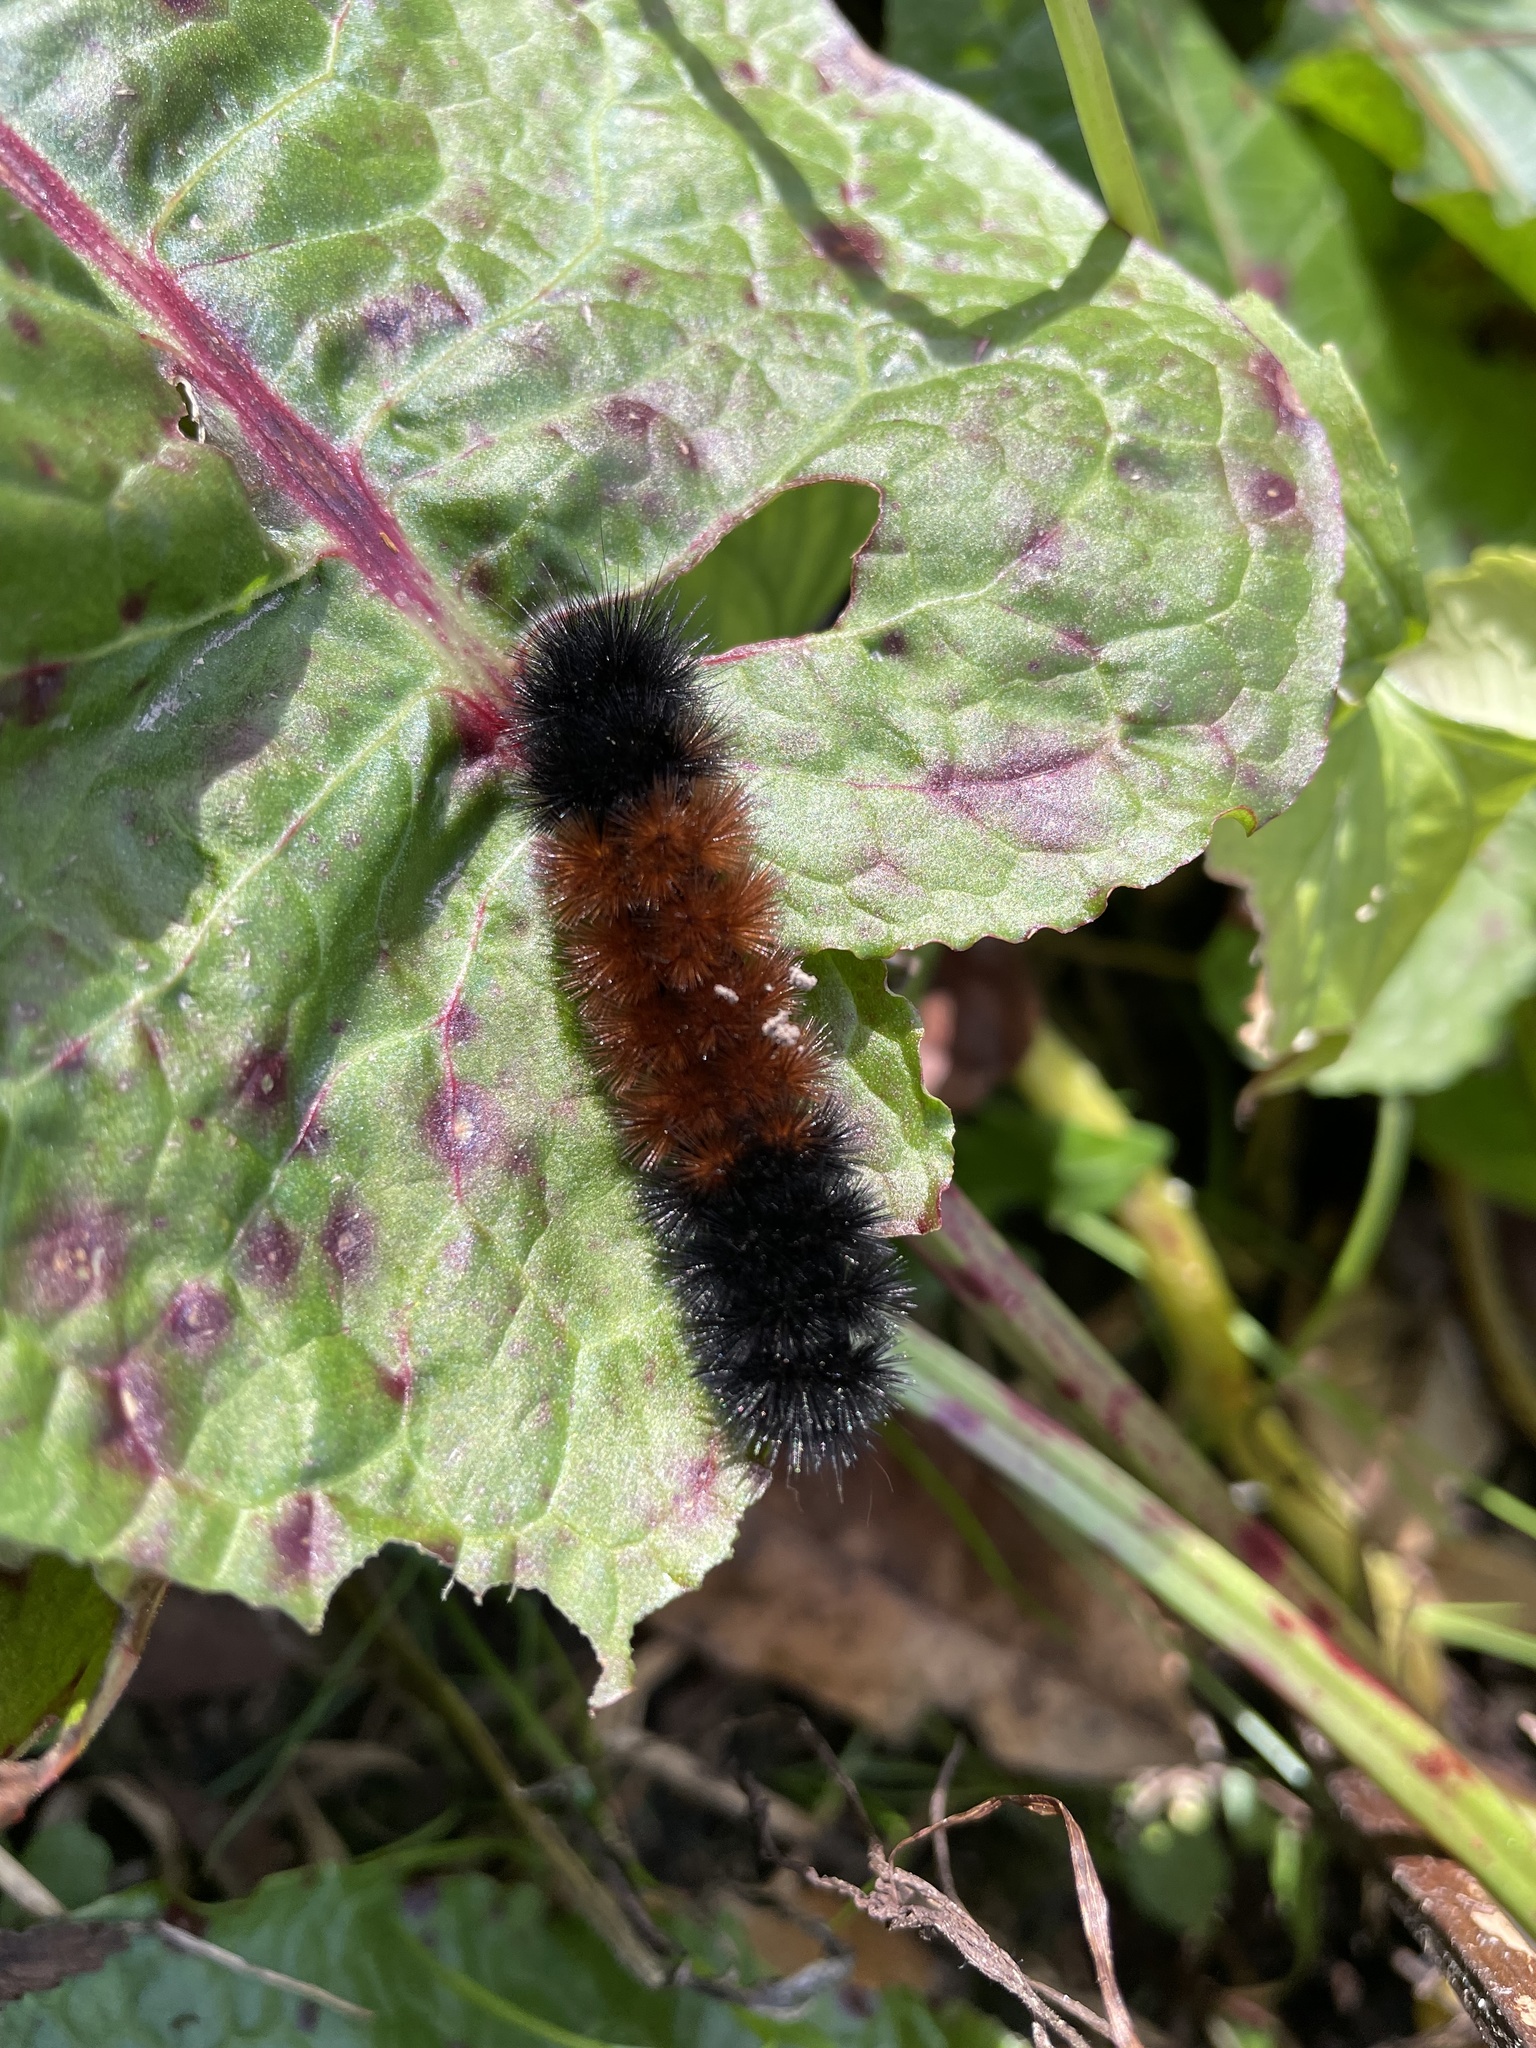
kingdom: Animalia
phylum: Arthropoda
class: Insecta
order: Lepidoptera
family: Erebidae
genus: Pyrrharctia
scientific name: Pyrrharctia isabella
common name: Isabella tiger moth
